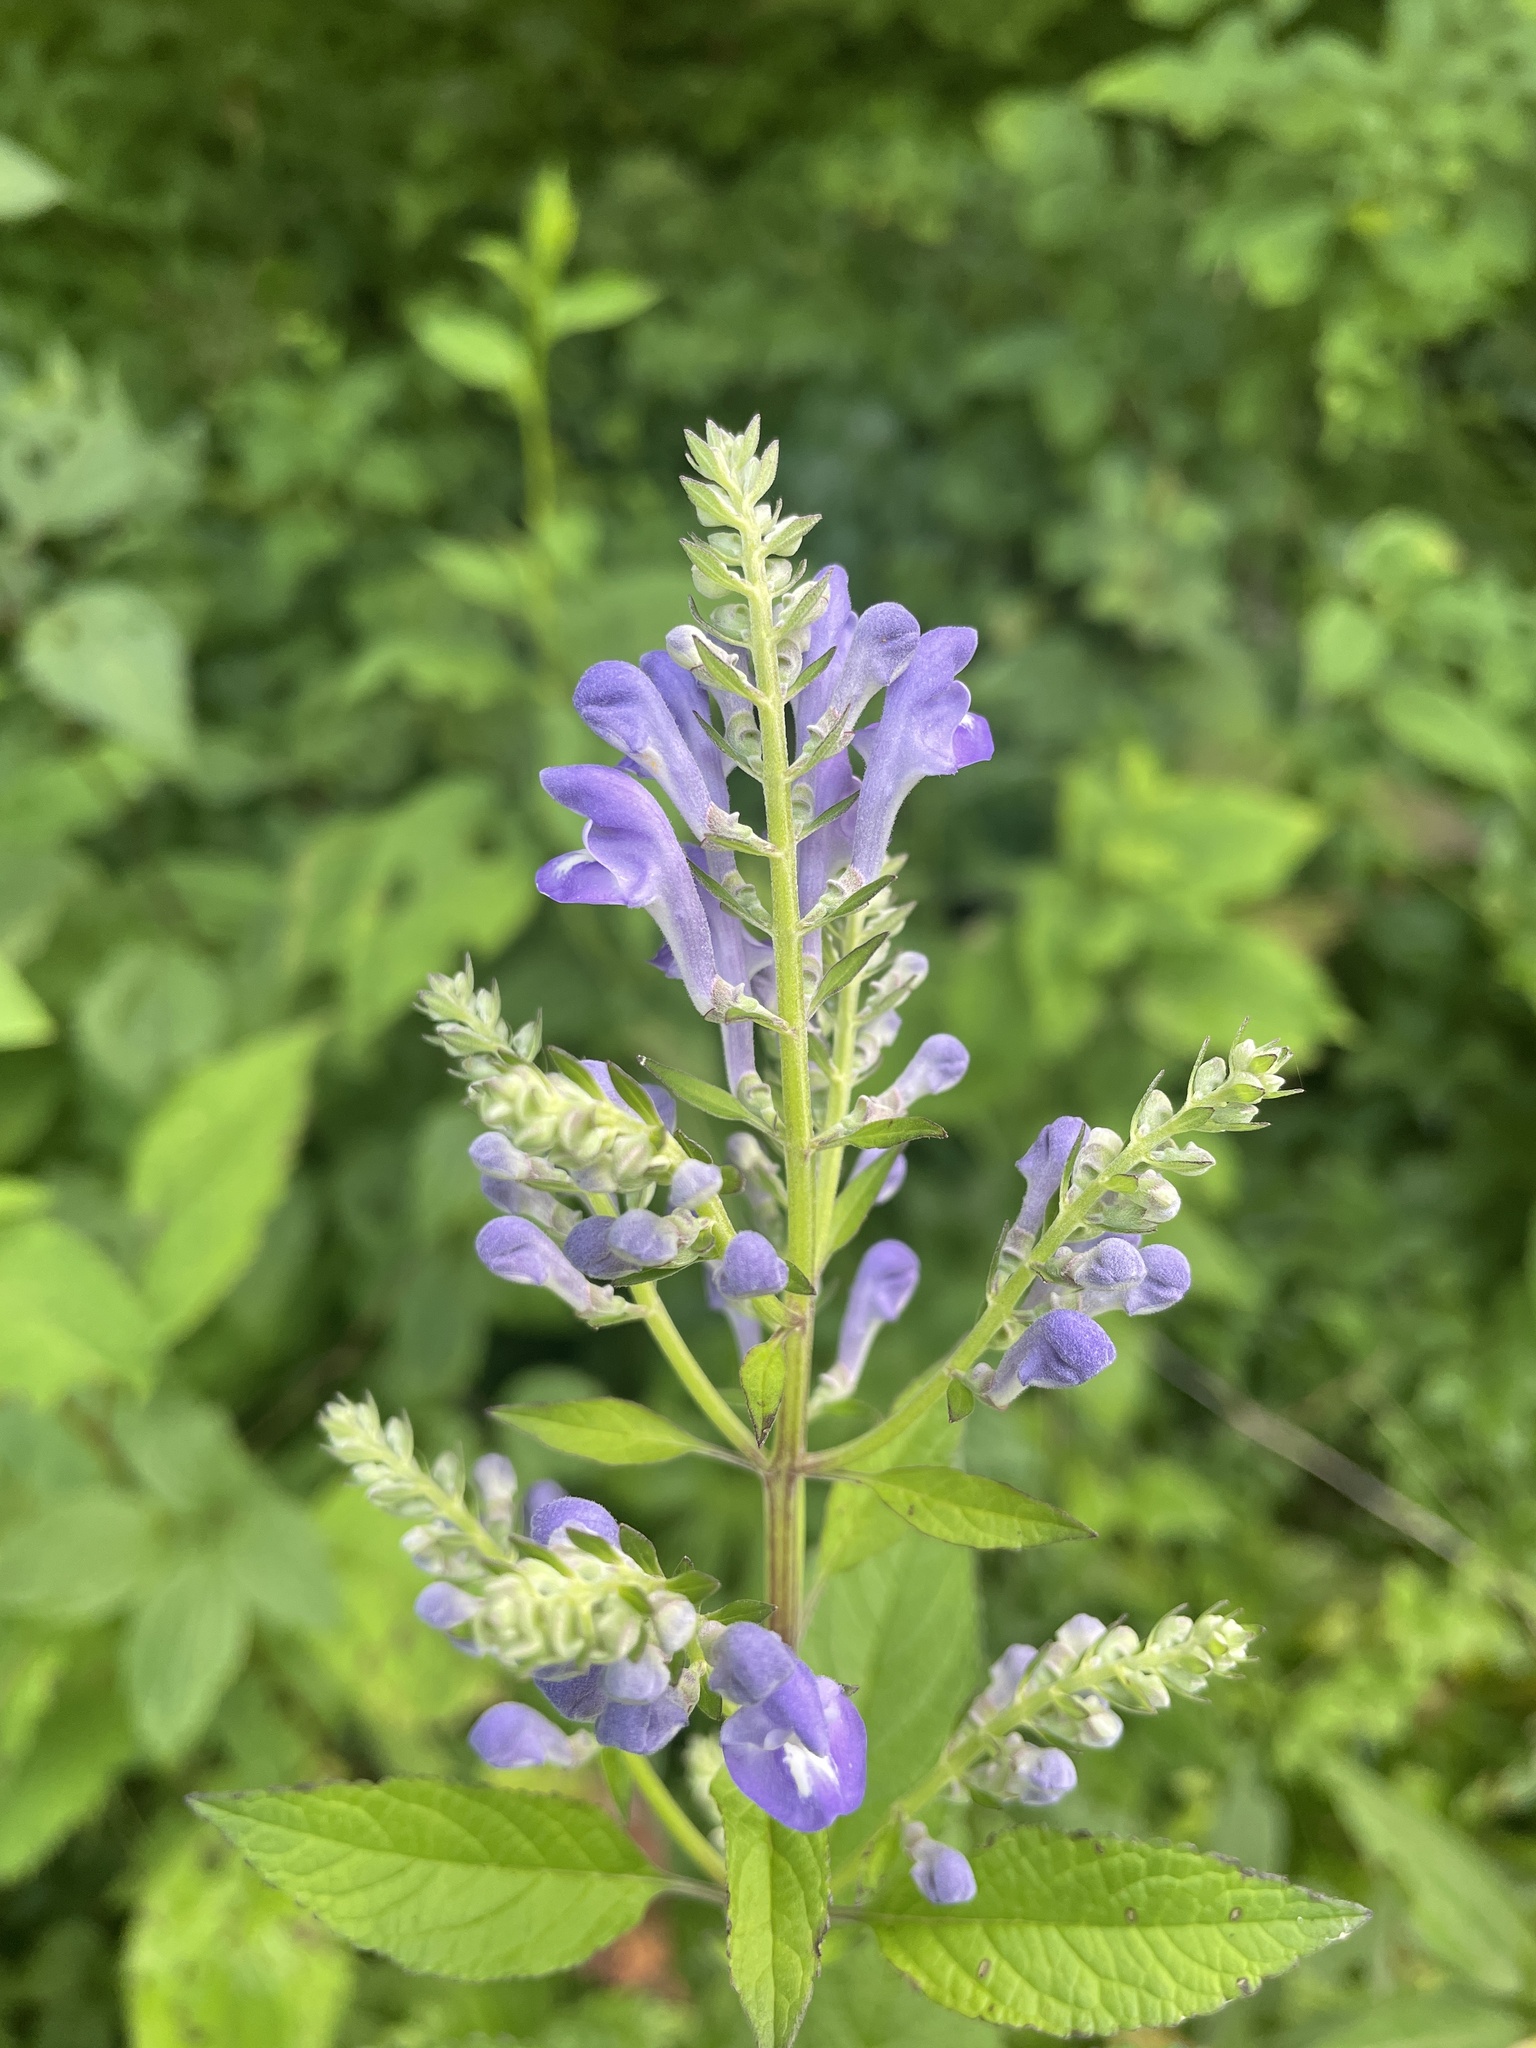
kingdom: Plantae
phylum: Tracheophyta
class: Magnoliopsida
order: Lamiales
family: Lamiaceae
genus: Scutellaria
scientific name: Scutellaria incana
